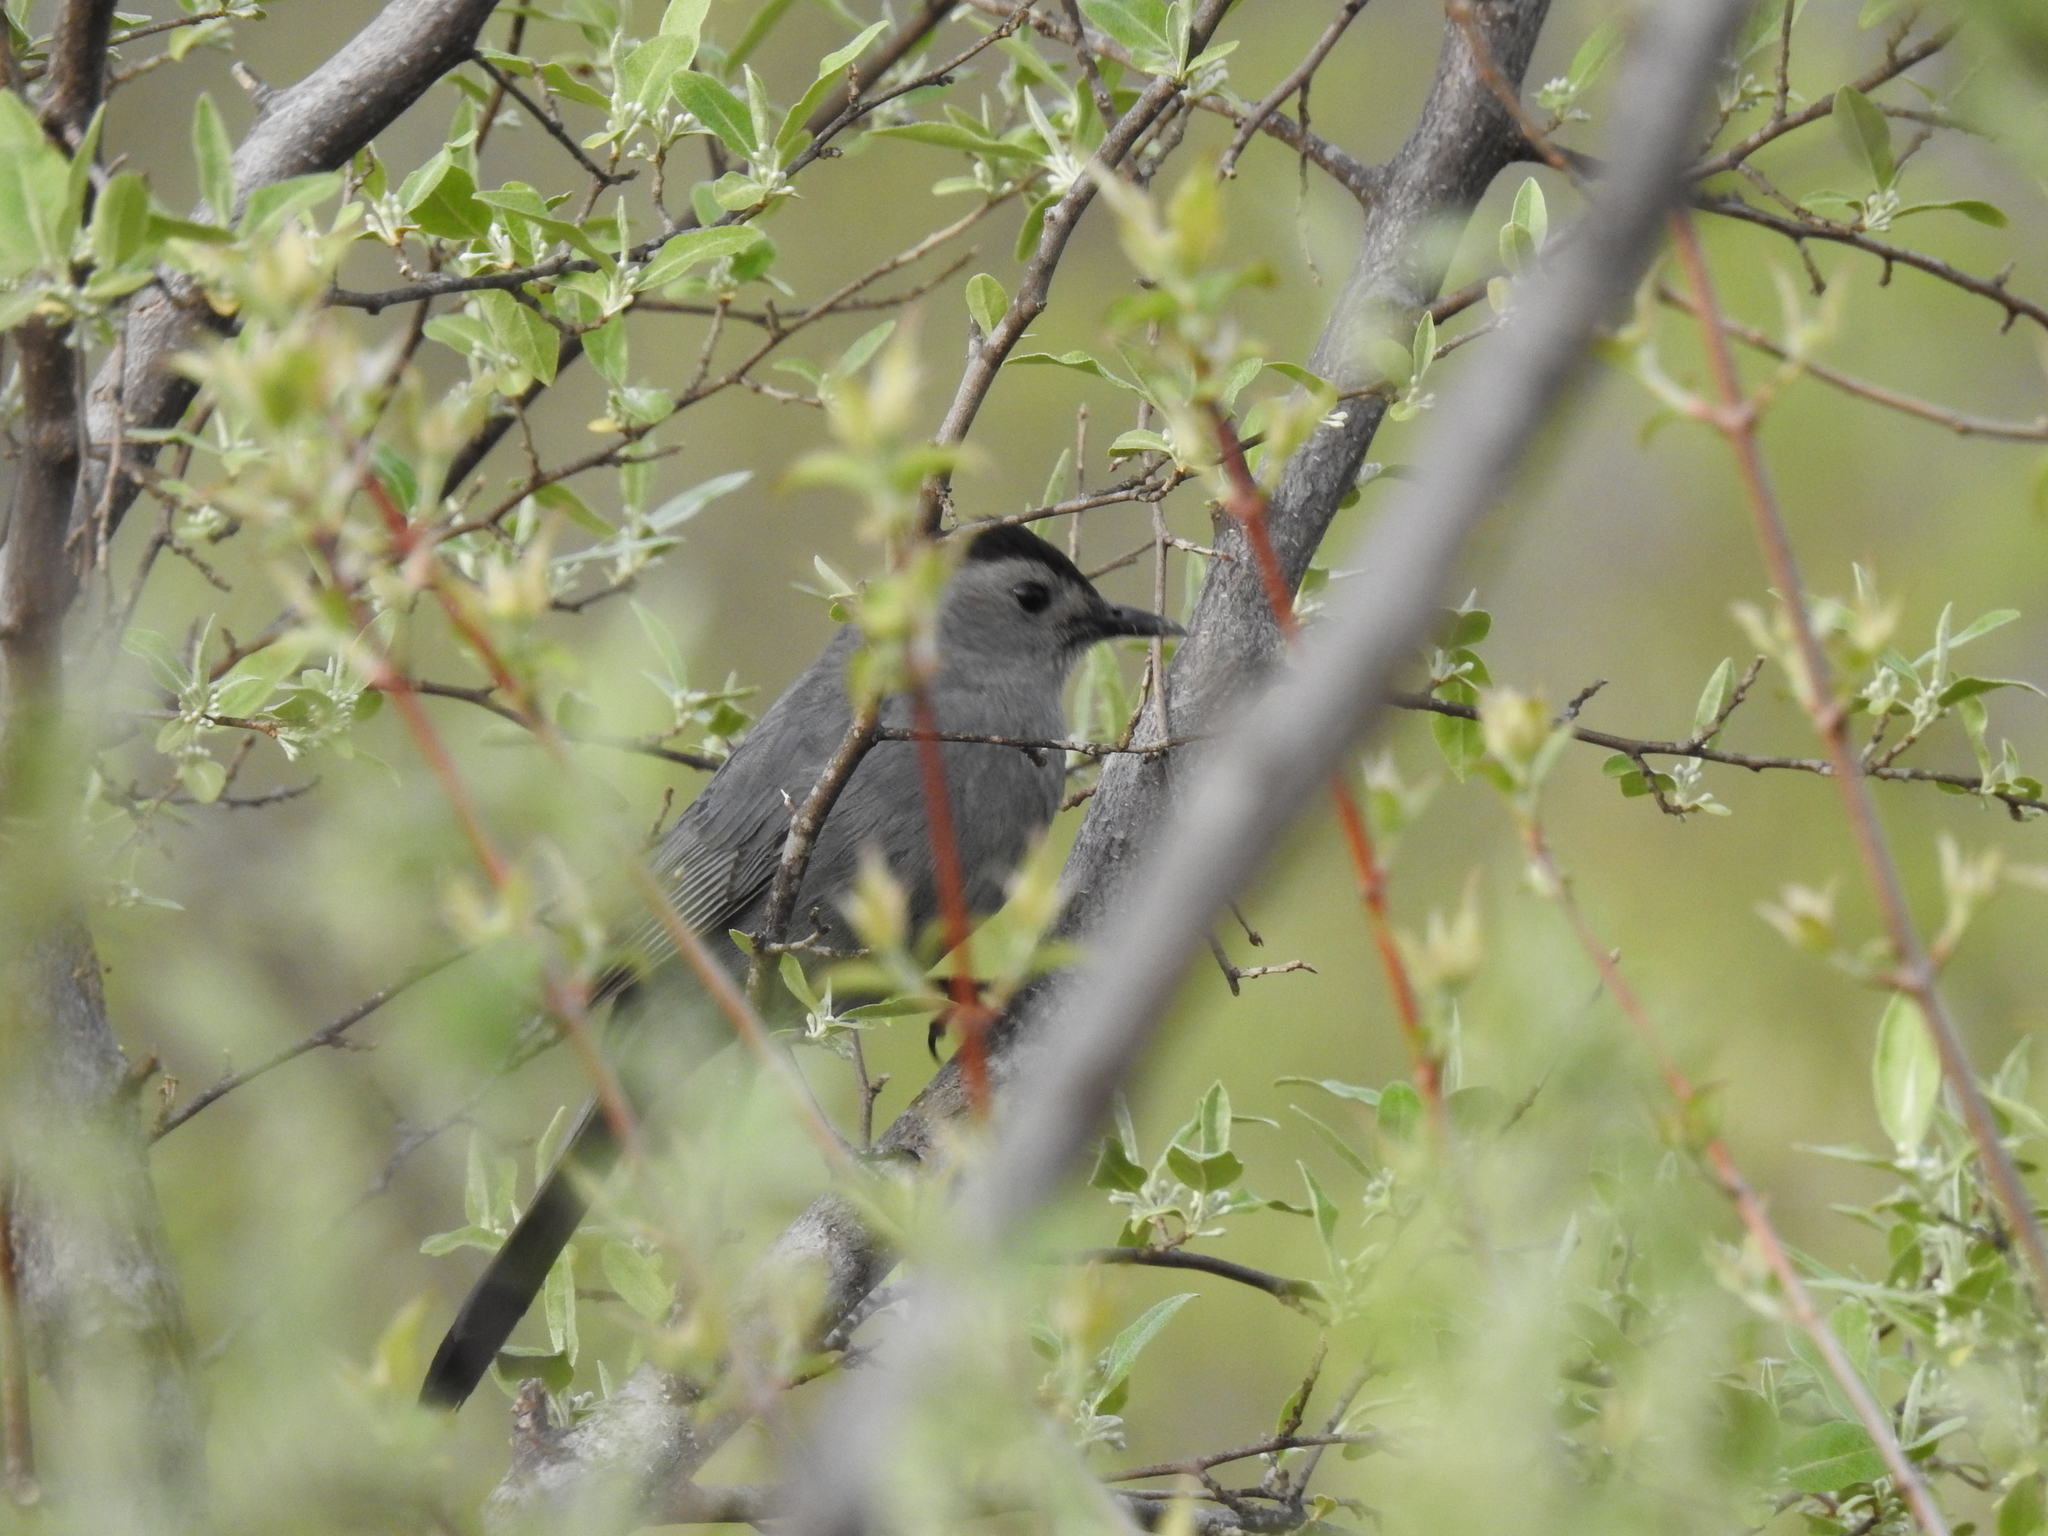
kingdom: Animalia
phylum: Chordata
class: Aves
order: Passeriformes
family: Mimidae
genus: Dumetella
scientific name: Dumetella carolinensis
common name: Gray catbird
